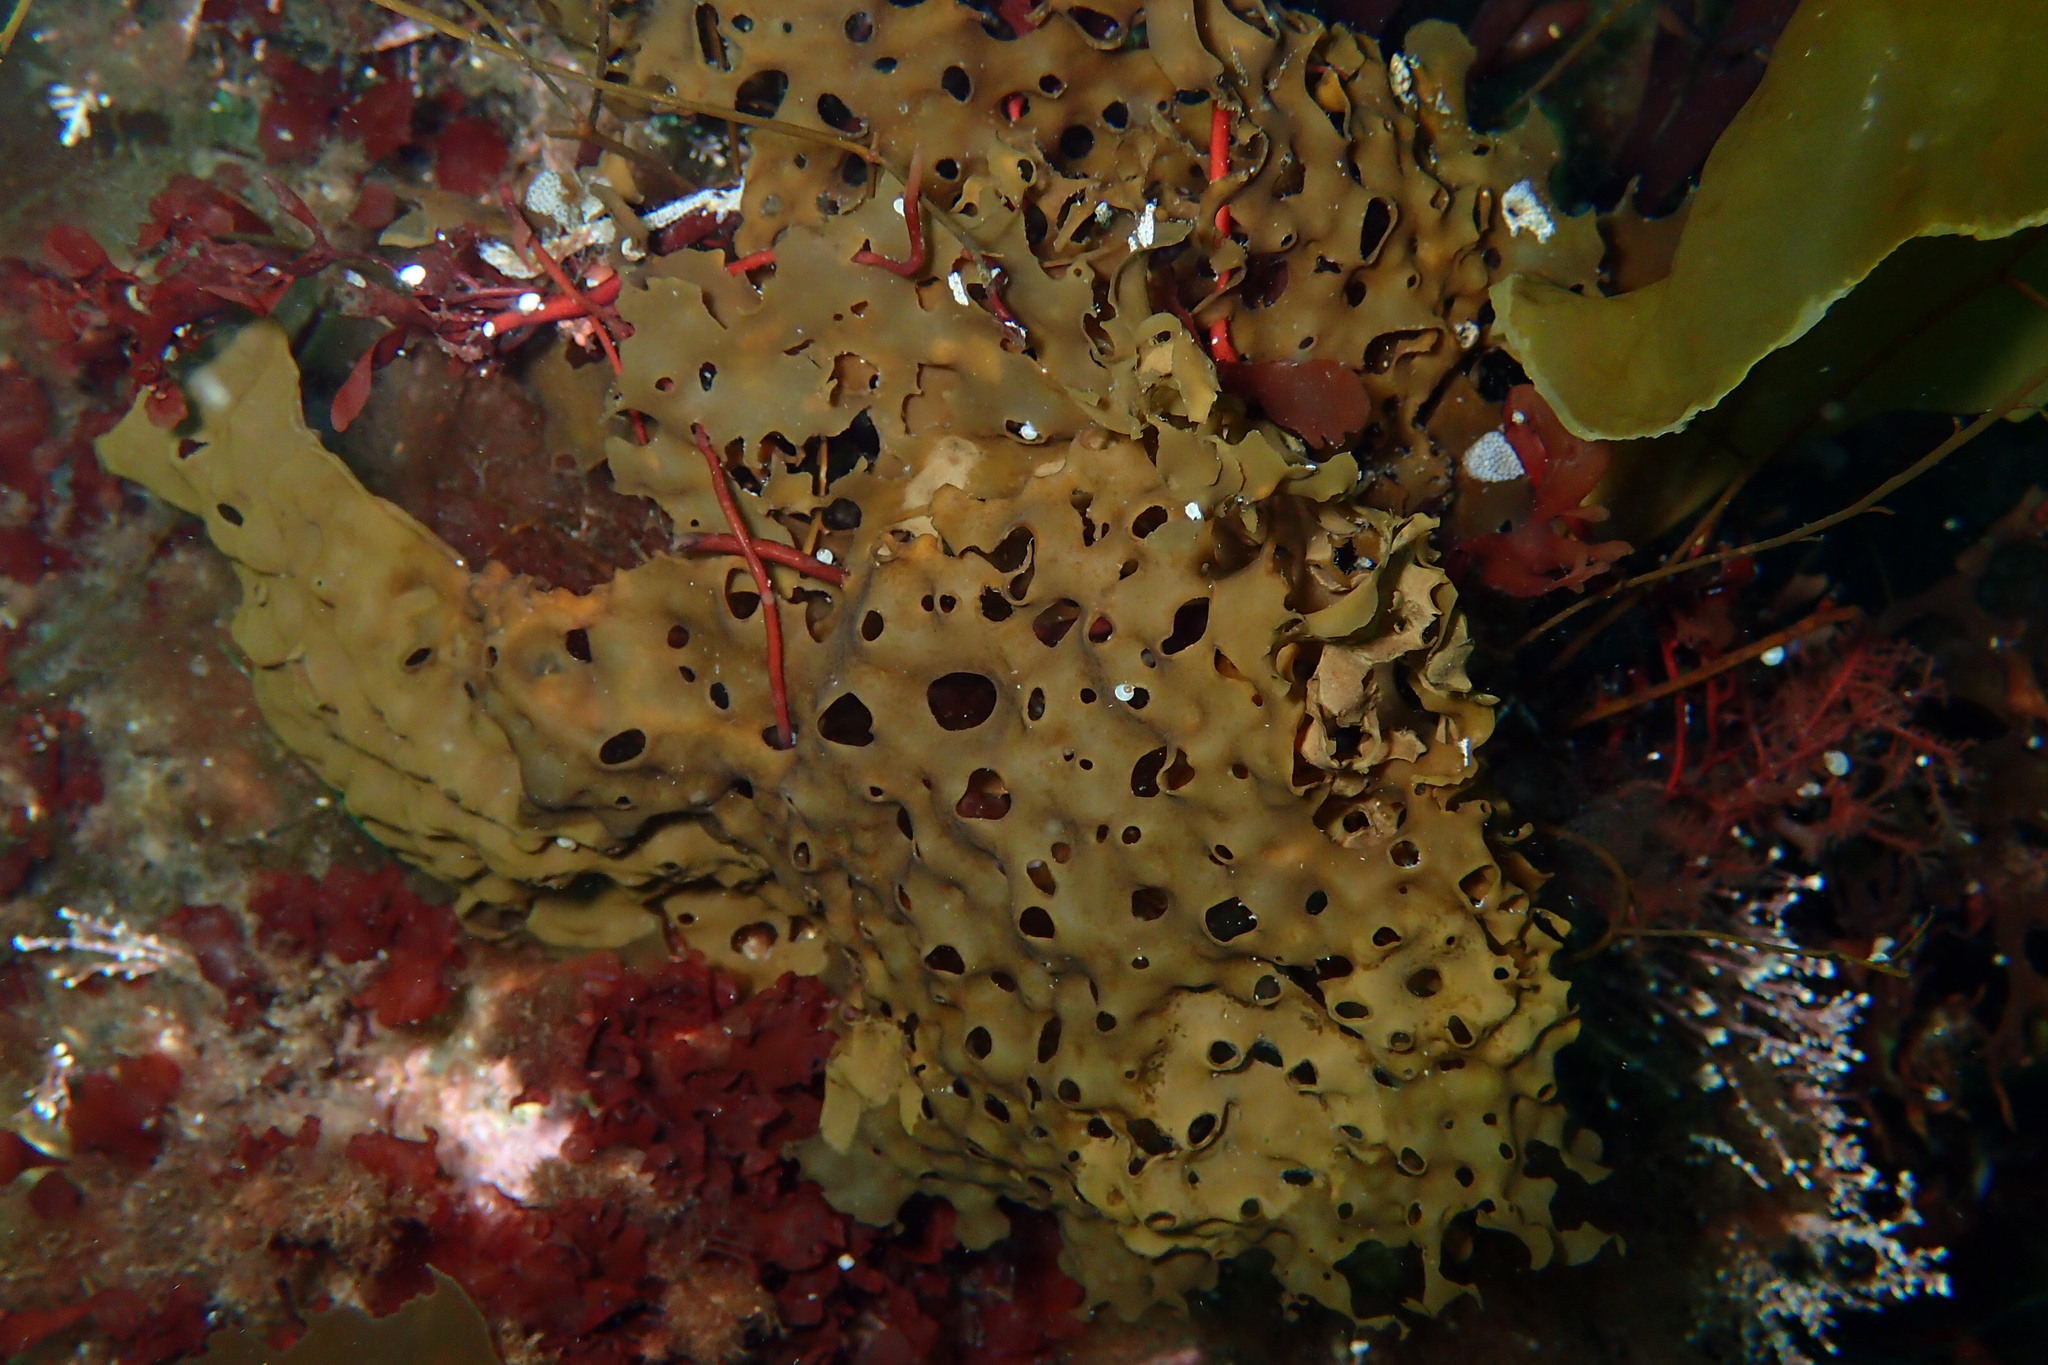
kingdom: Chromista
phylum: Ochrophyta
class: Phaeophyceae
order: Laminariales
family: Costariaceae
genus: Agarum
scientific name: Agarum clathratum
